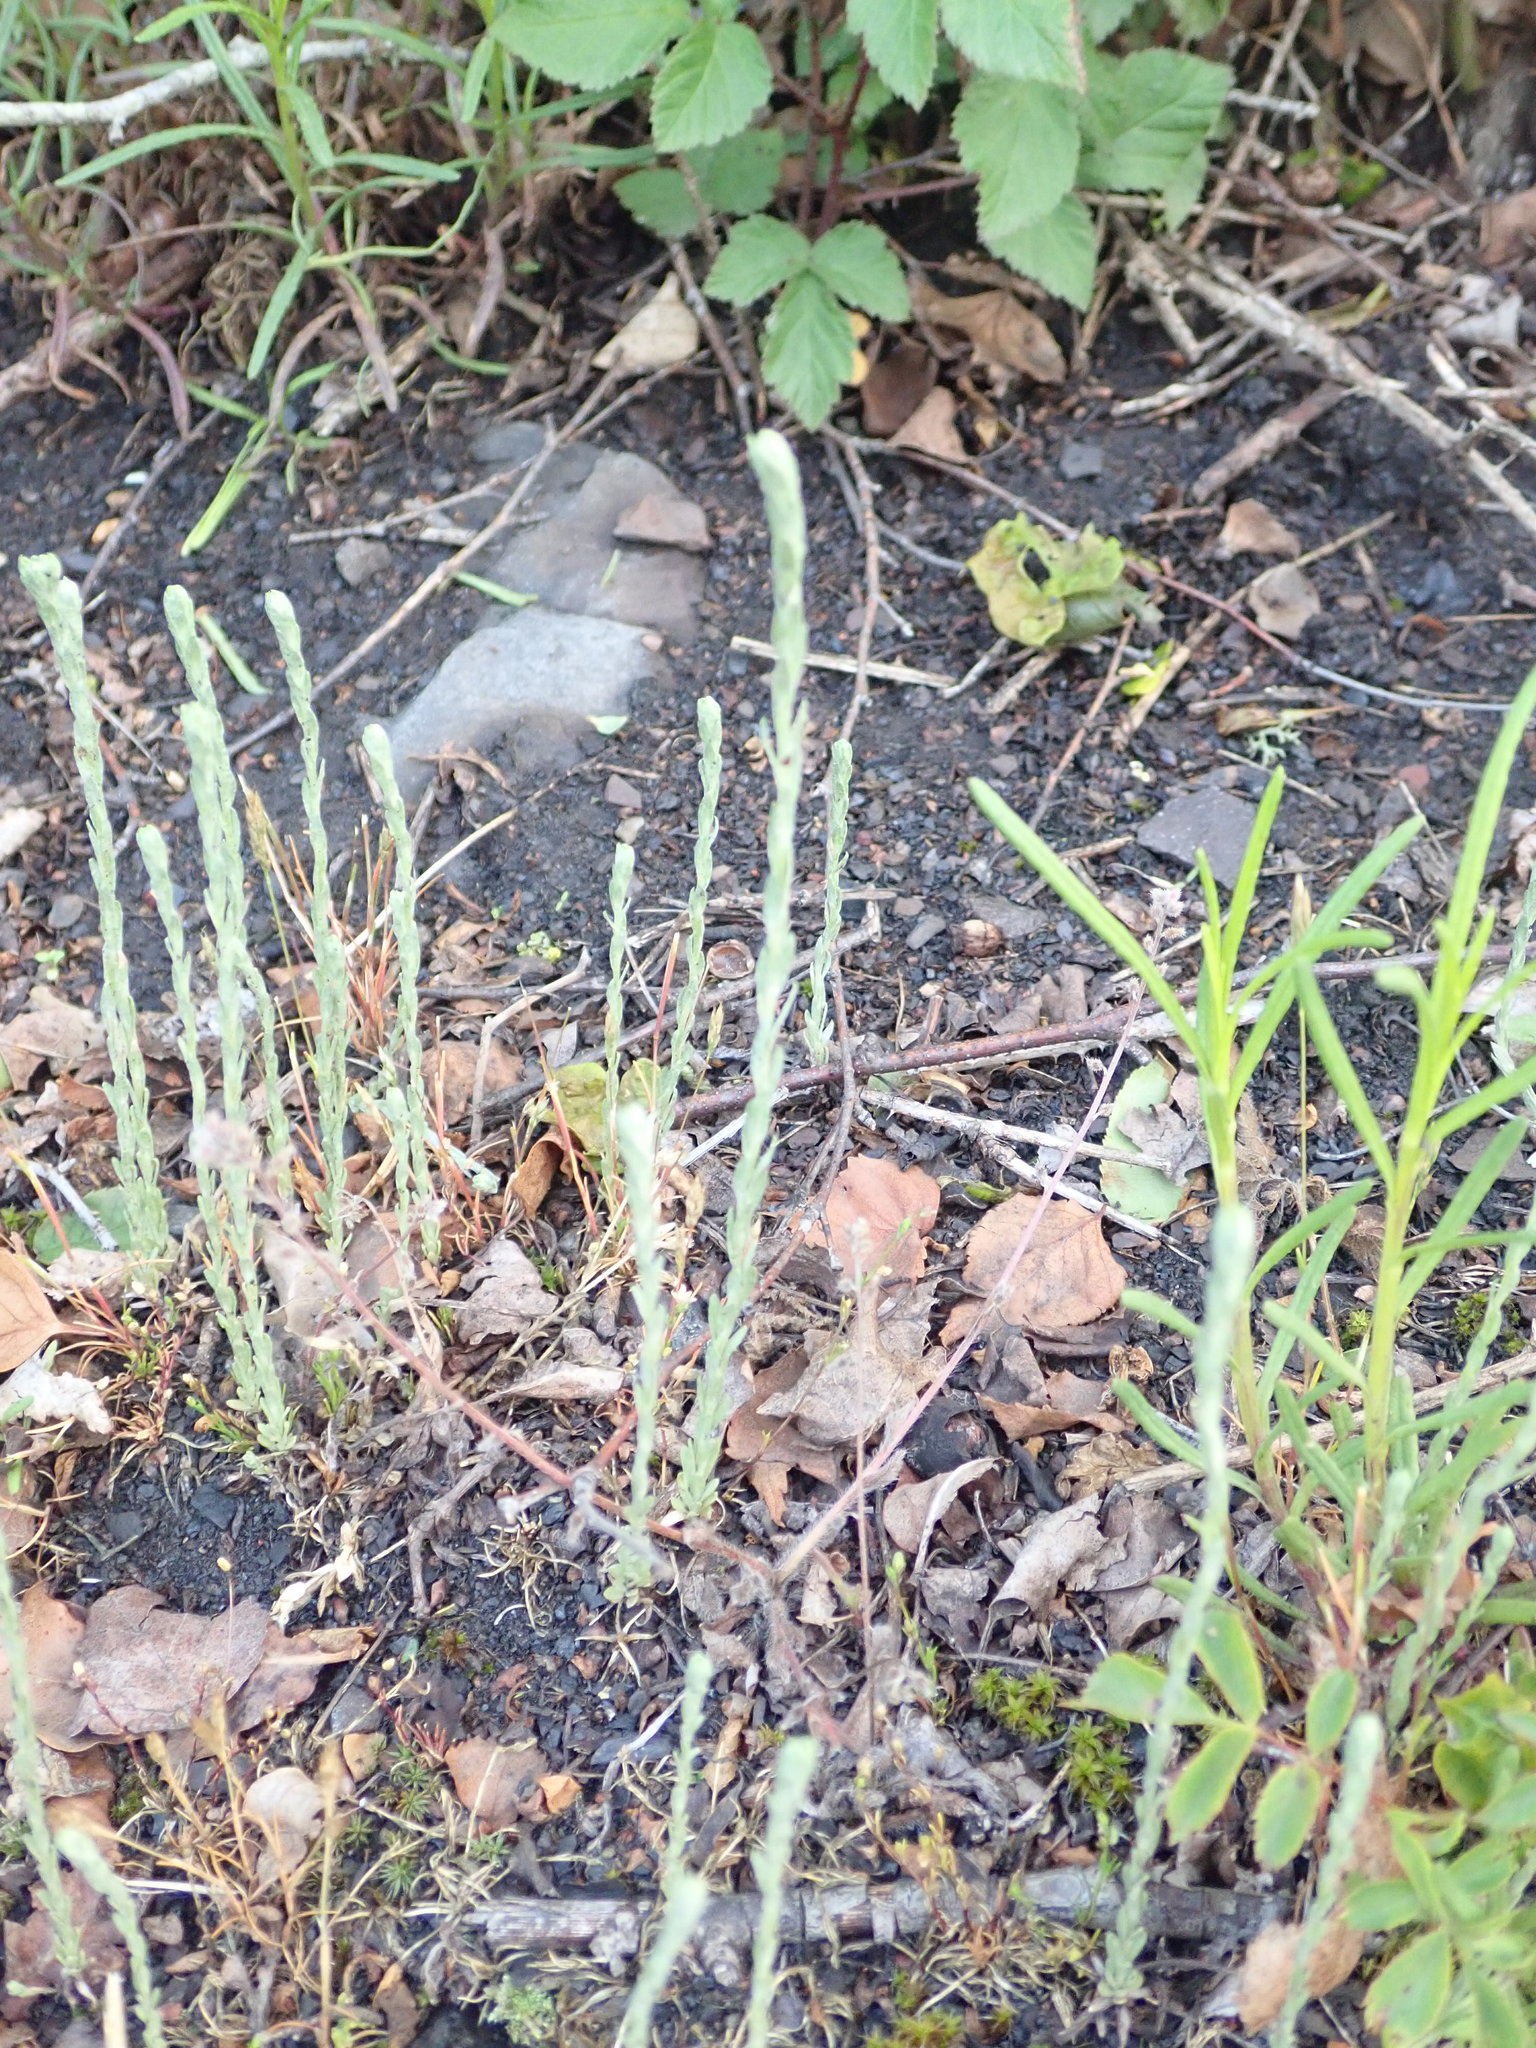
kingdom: Plantae
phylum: Tracheophyta
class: Magnoliopsida
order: Asterales
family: Asteraceae
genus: Logfia
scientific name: Logfia minima
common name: Little cottonrose
